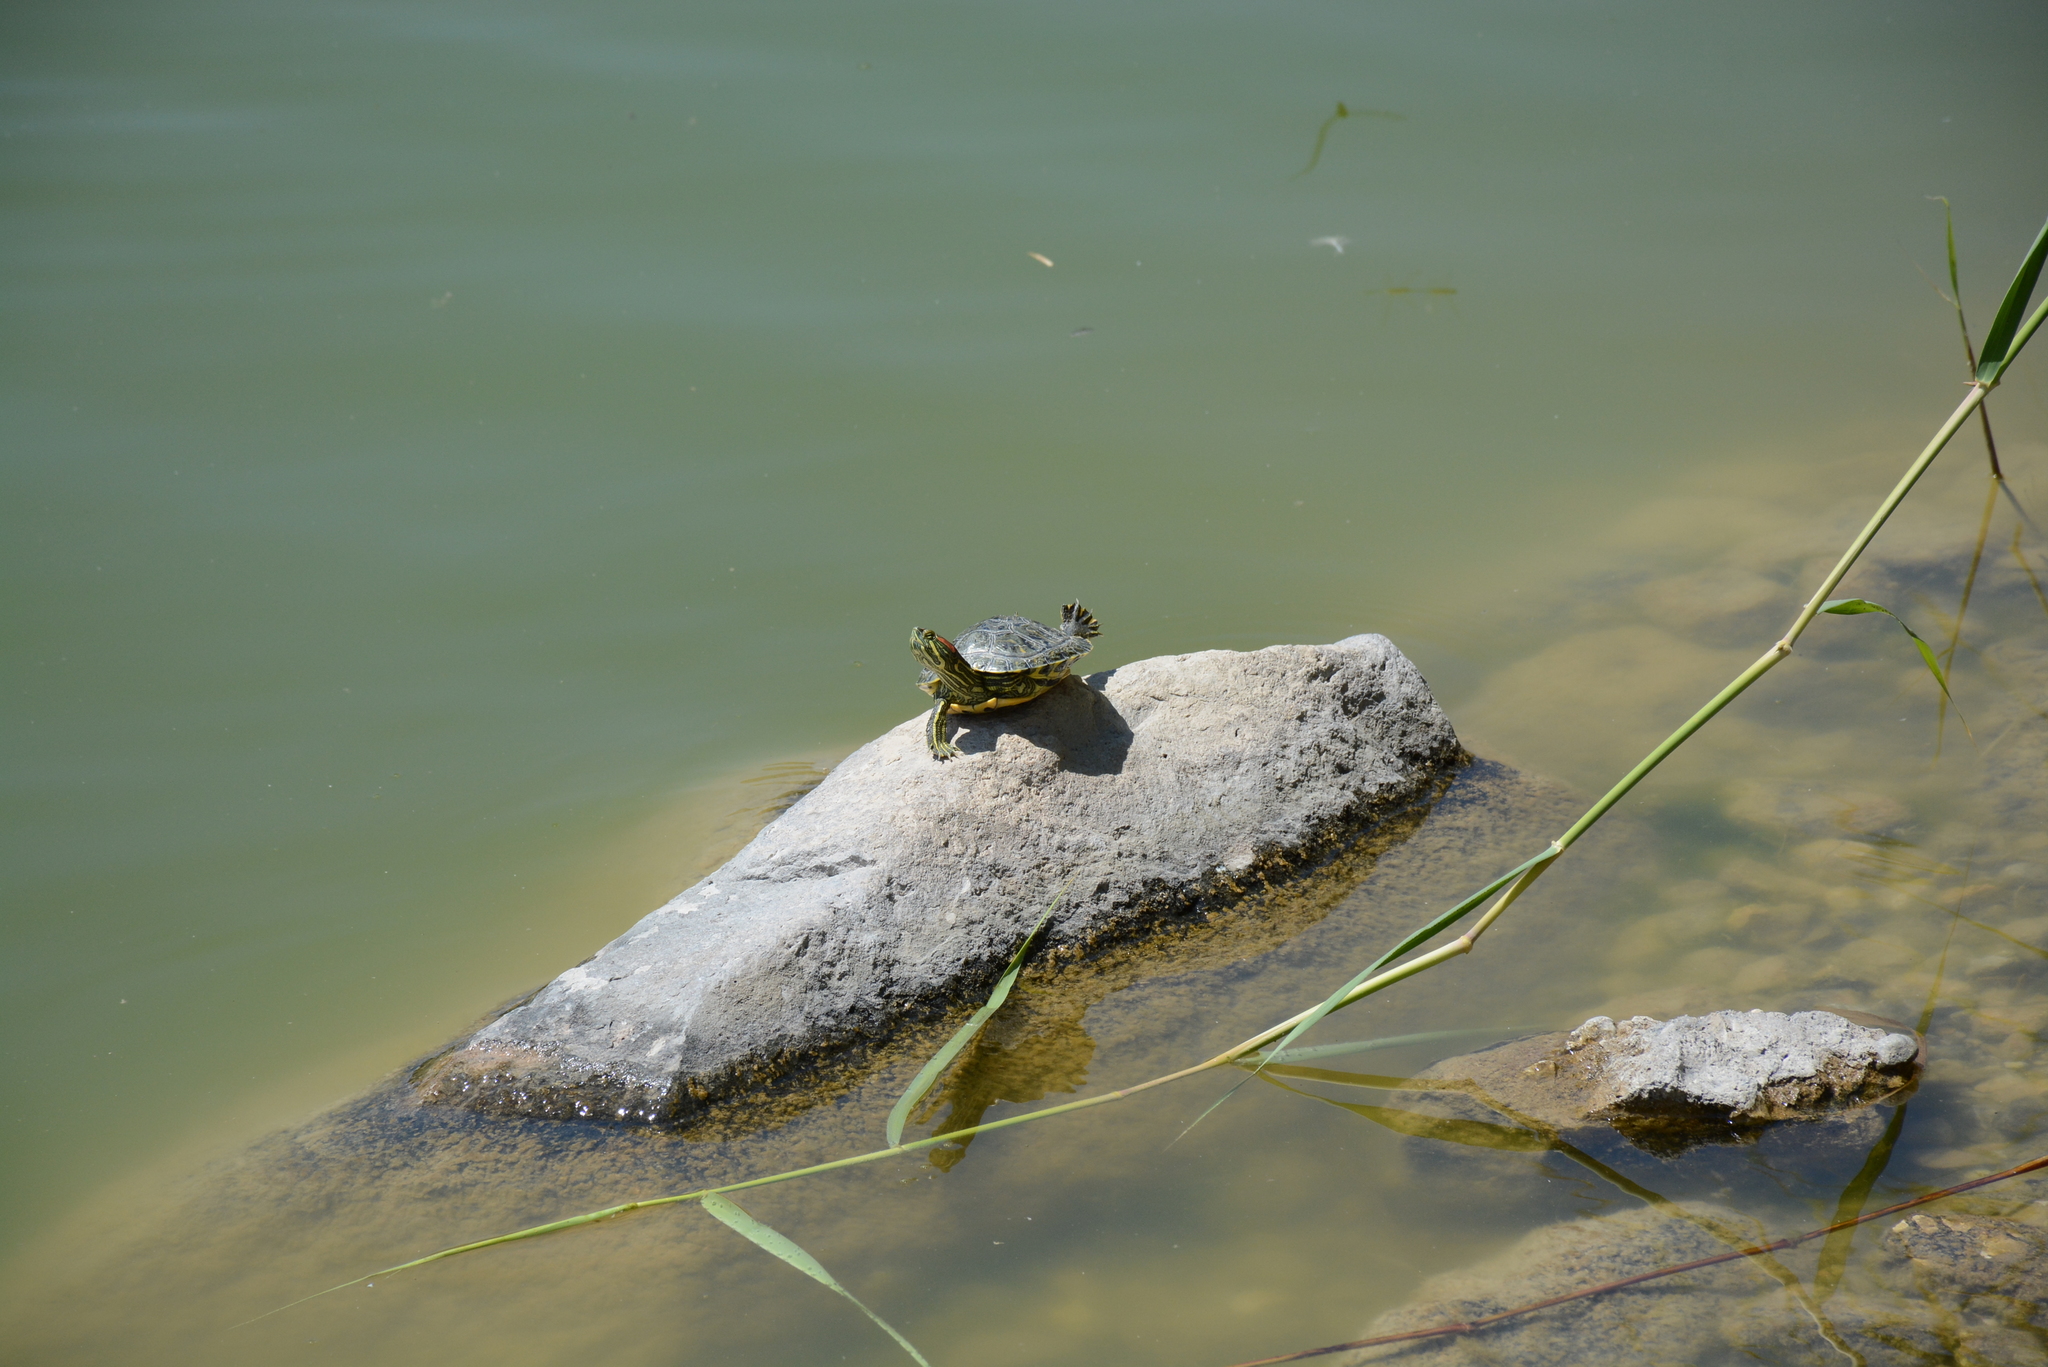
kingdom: Animalia
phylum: Chordata
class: Testudines
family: Emydidae
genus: Trachemys
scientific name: Trachemys scripta
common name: Slider
